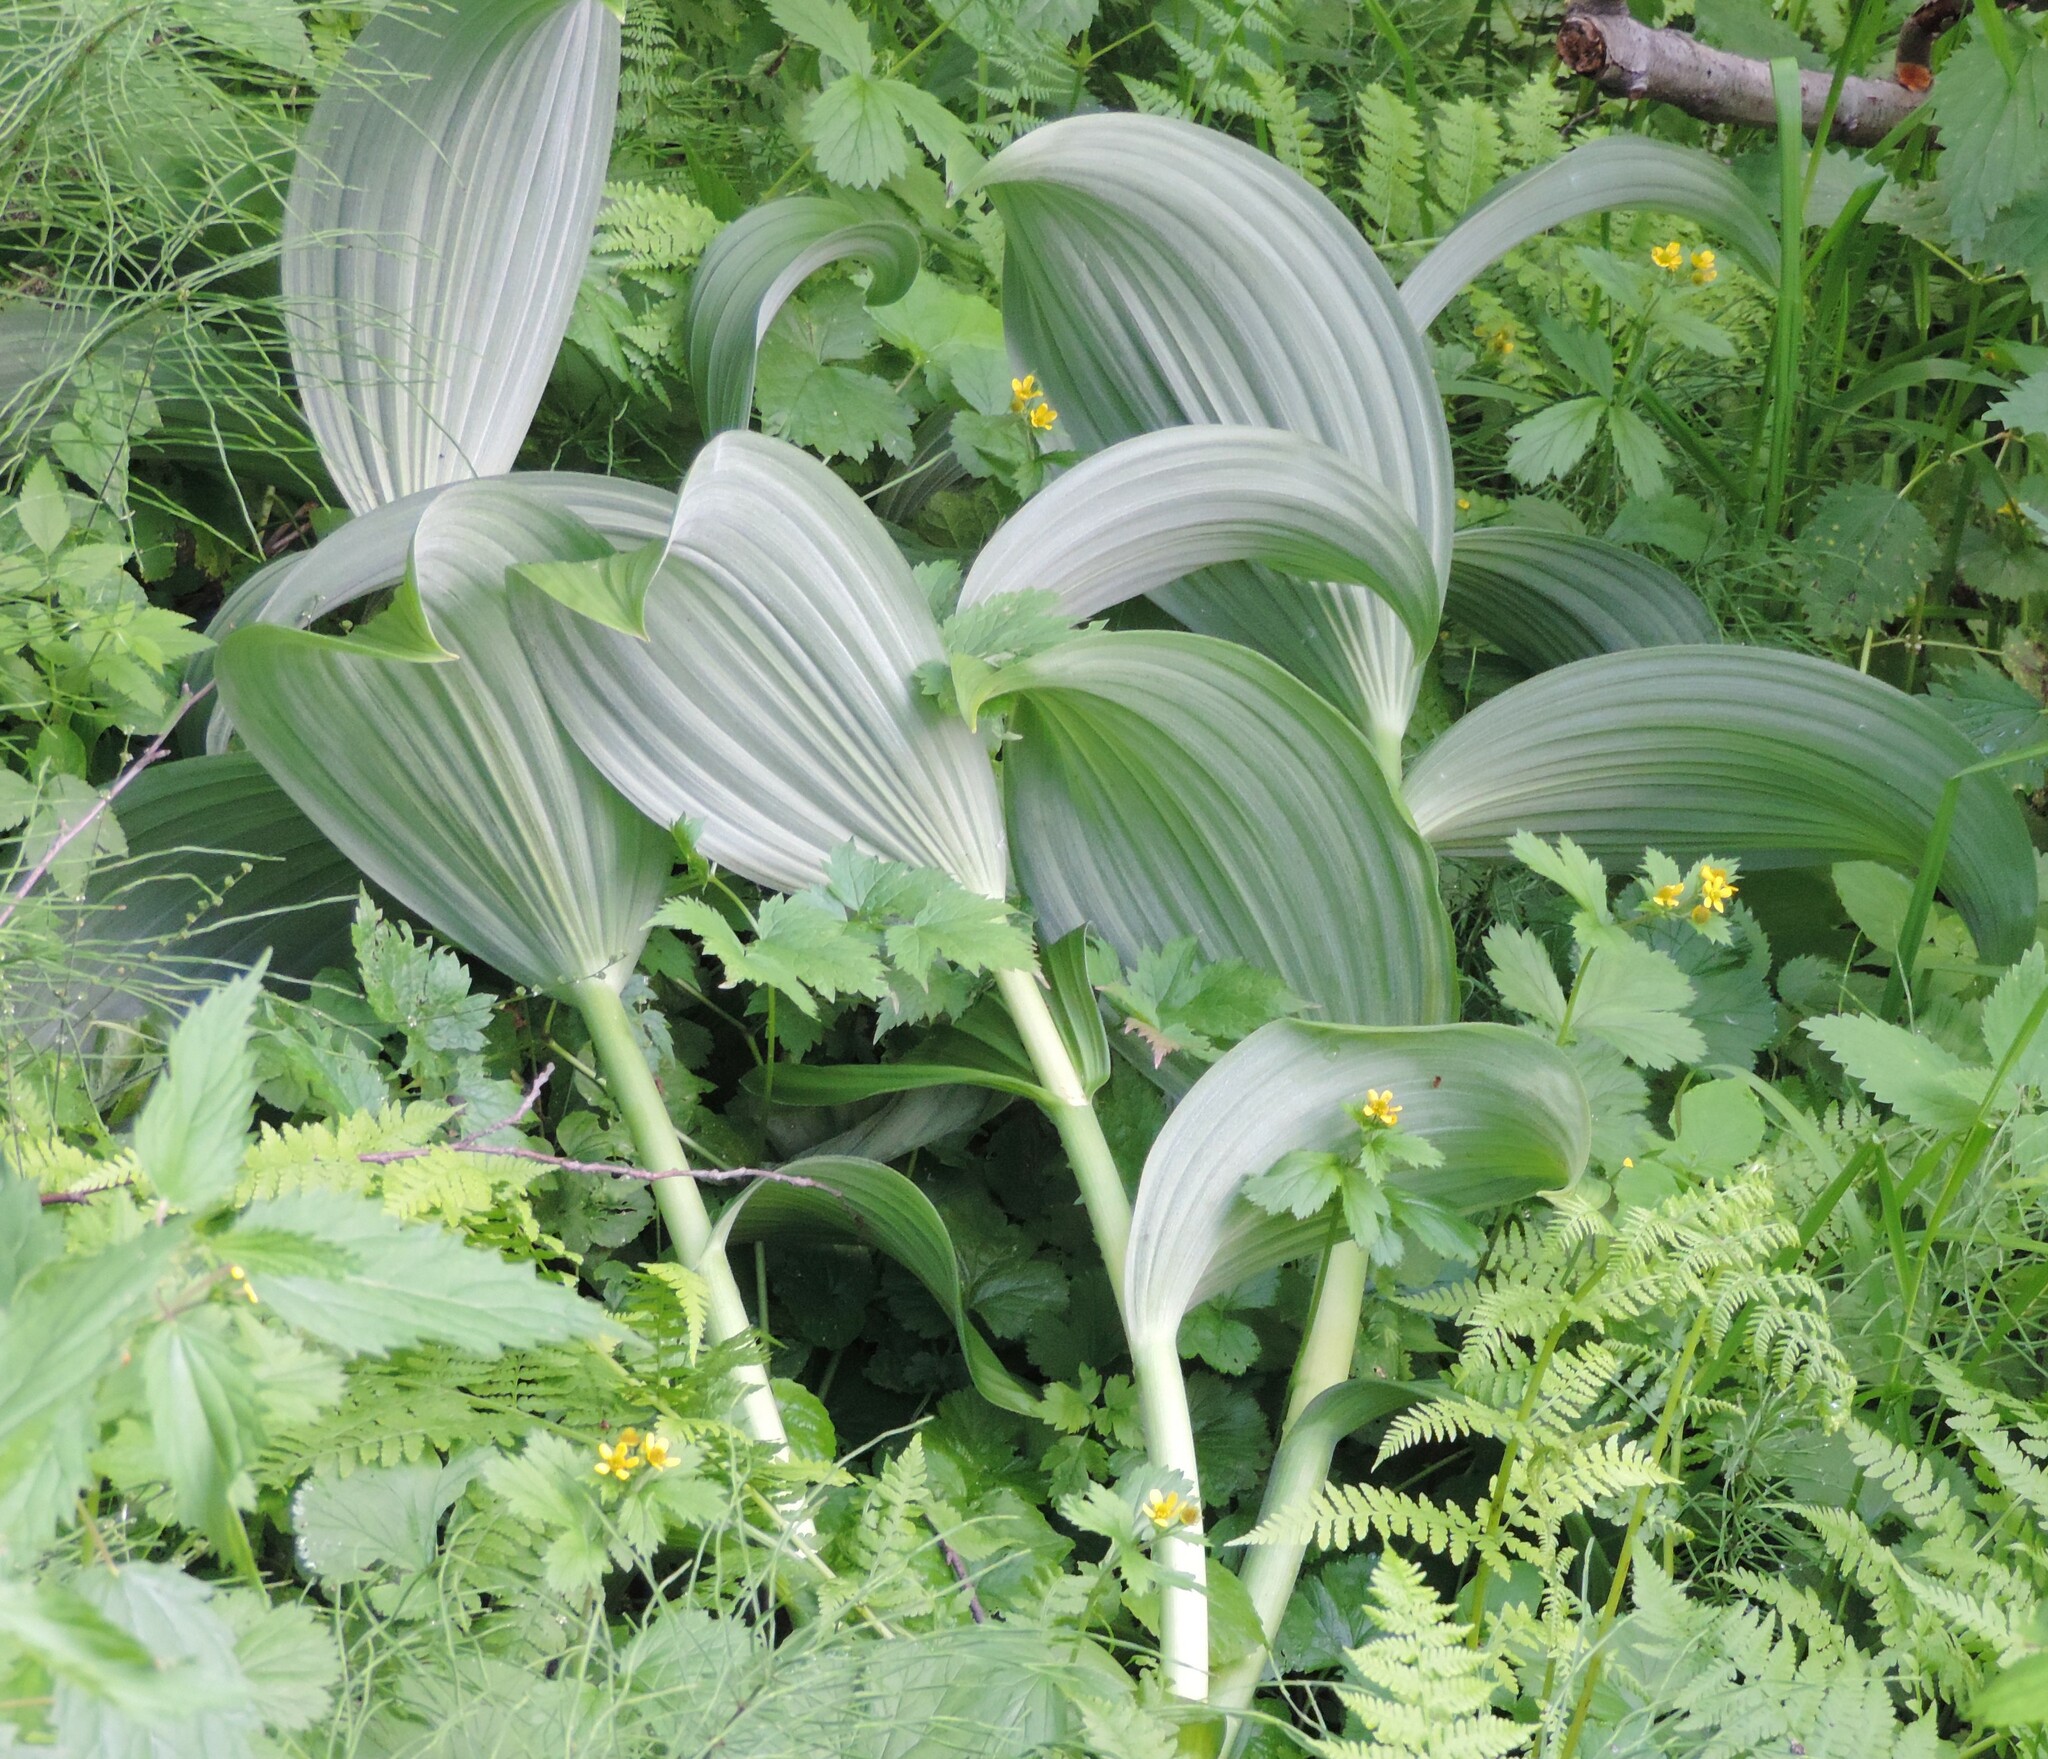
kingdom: Plantae
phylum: Tracheophyta
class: Liliopsida
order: Liliales
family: Melanthiaceae
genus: Veratrum
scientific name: Veratrum viride
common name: American false hellebore
